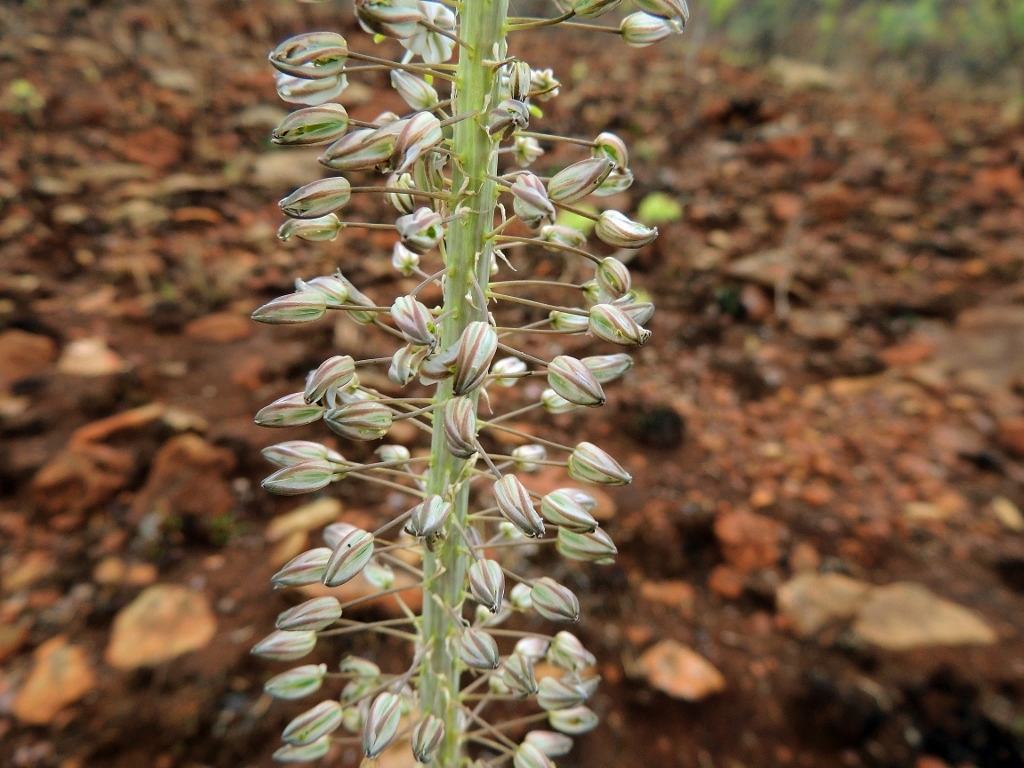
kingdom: Plantae
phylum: Tracheophyta
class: Liliopsida
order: Asparagales
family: Asparagaceae
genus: Drimia
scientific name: Drimia altissima
